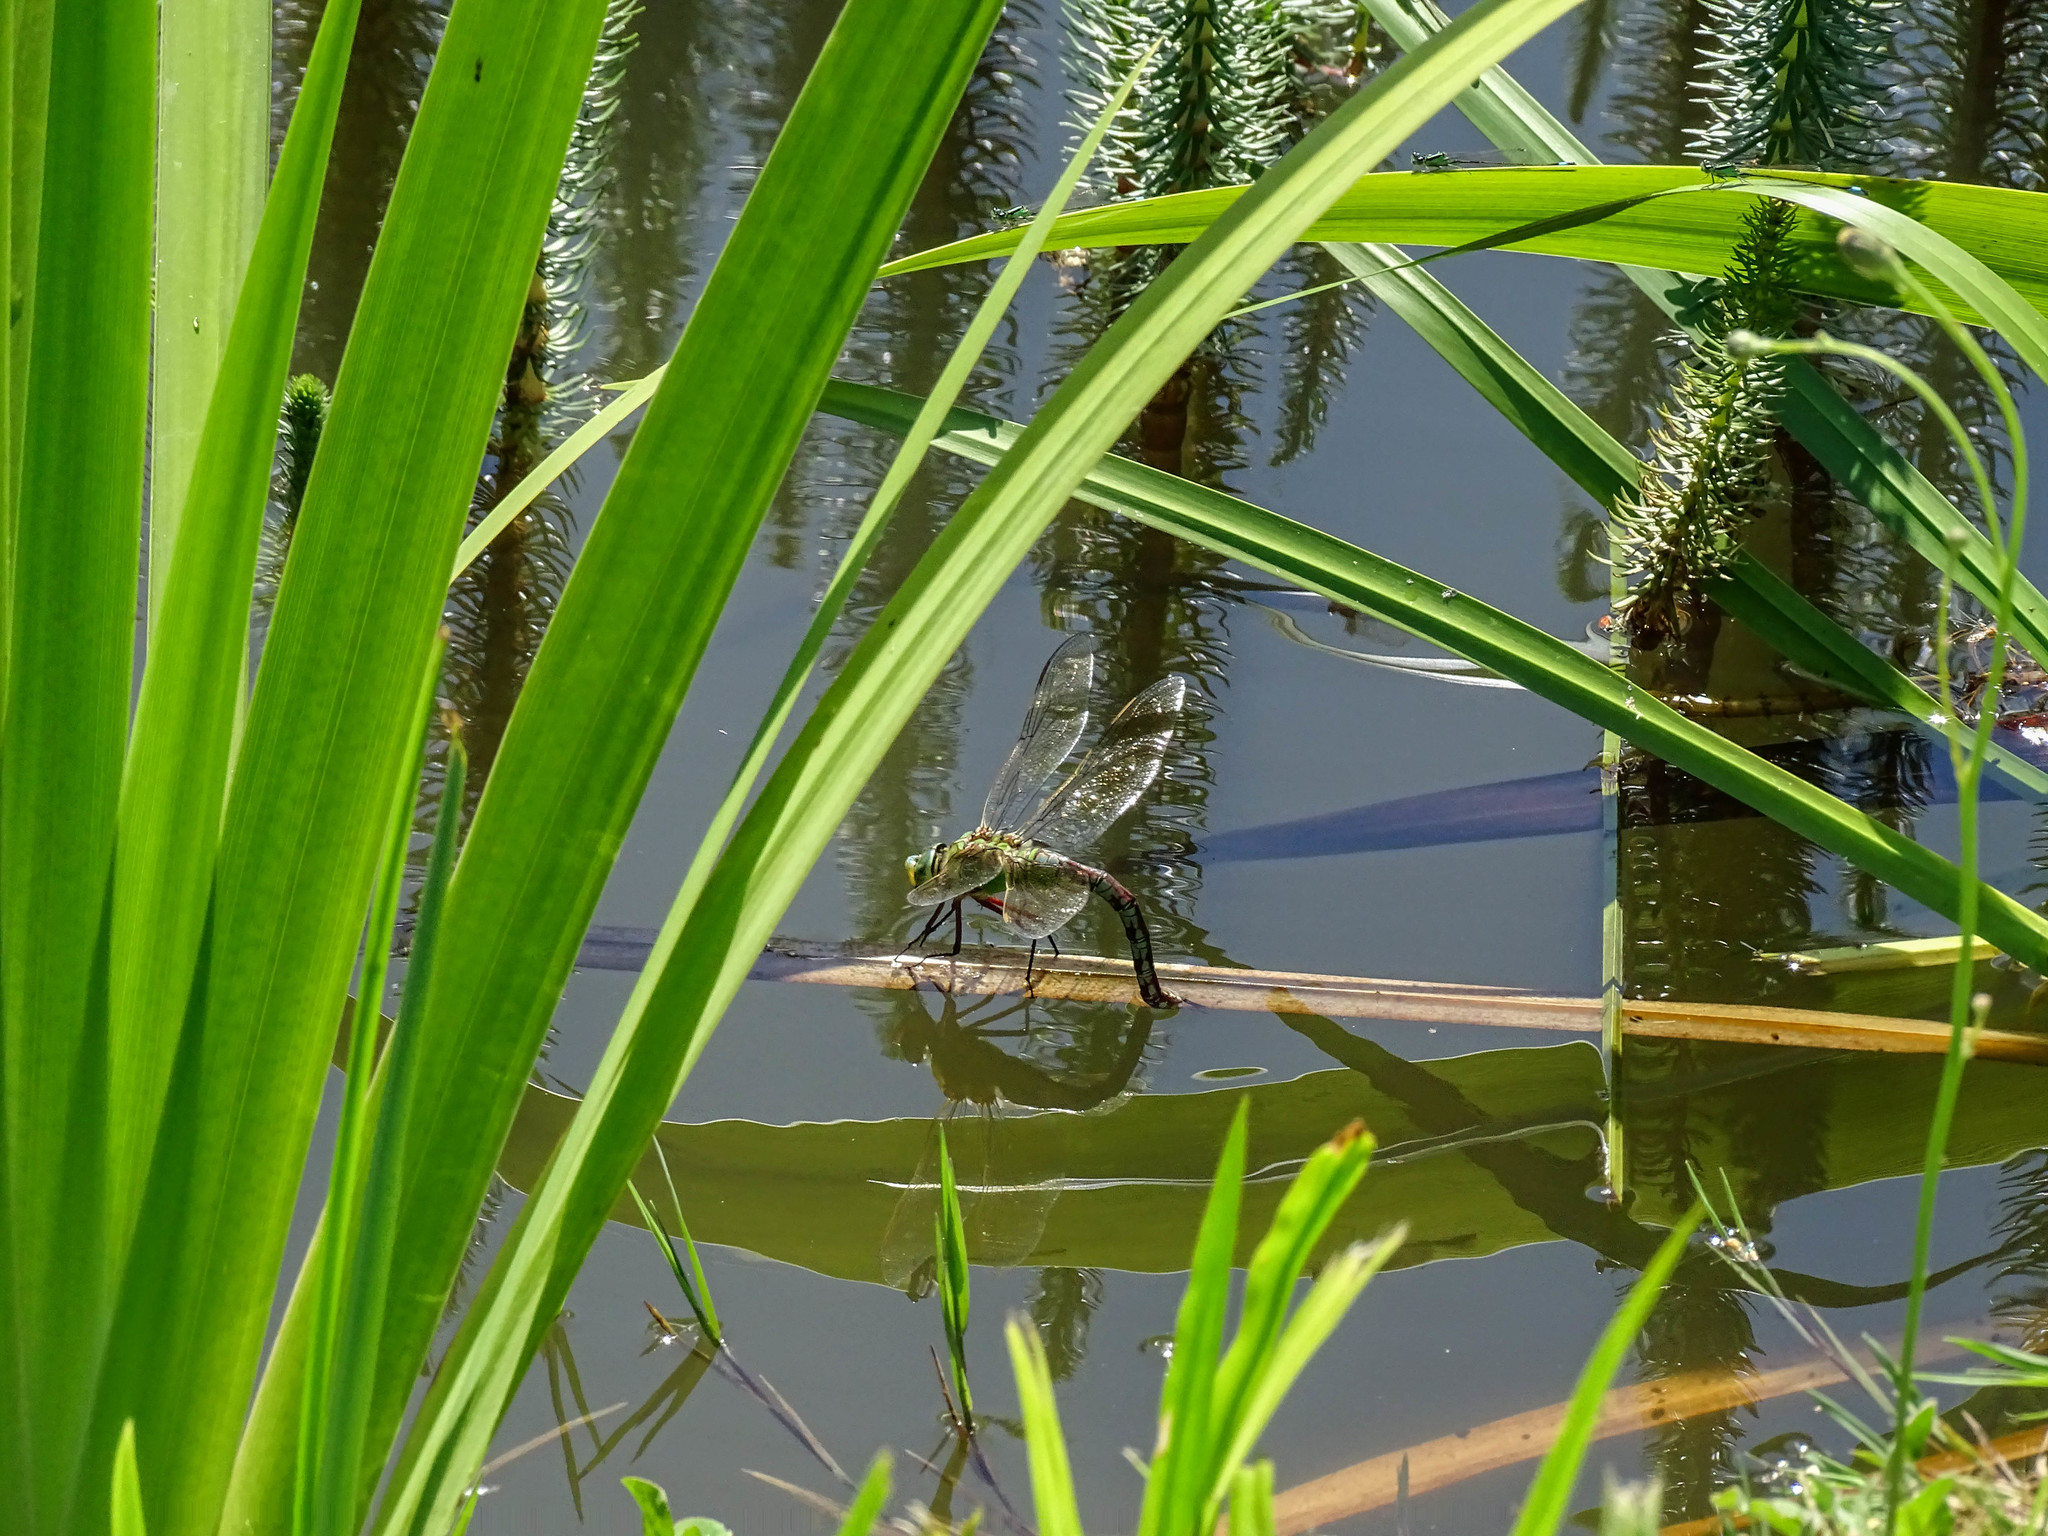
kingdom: Animalia
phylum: Arthropoda
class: Insecta
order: Odonata
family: Aeshnidae
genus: Anax
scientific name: Anax imperator
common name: Emperor dragonfly
